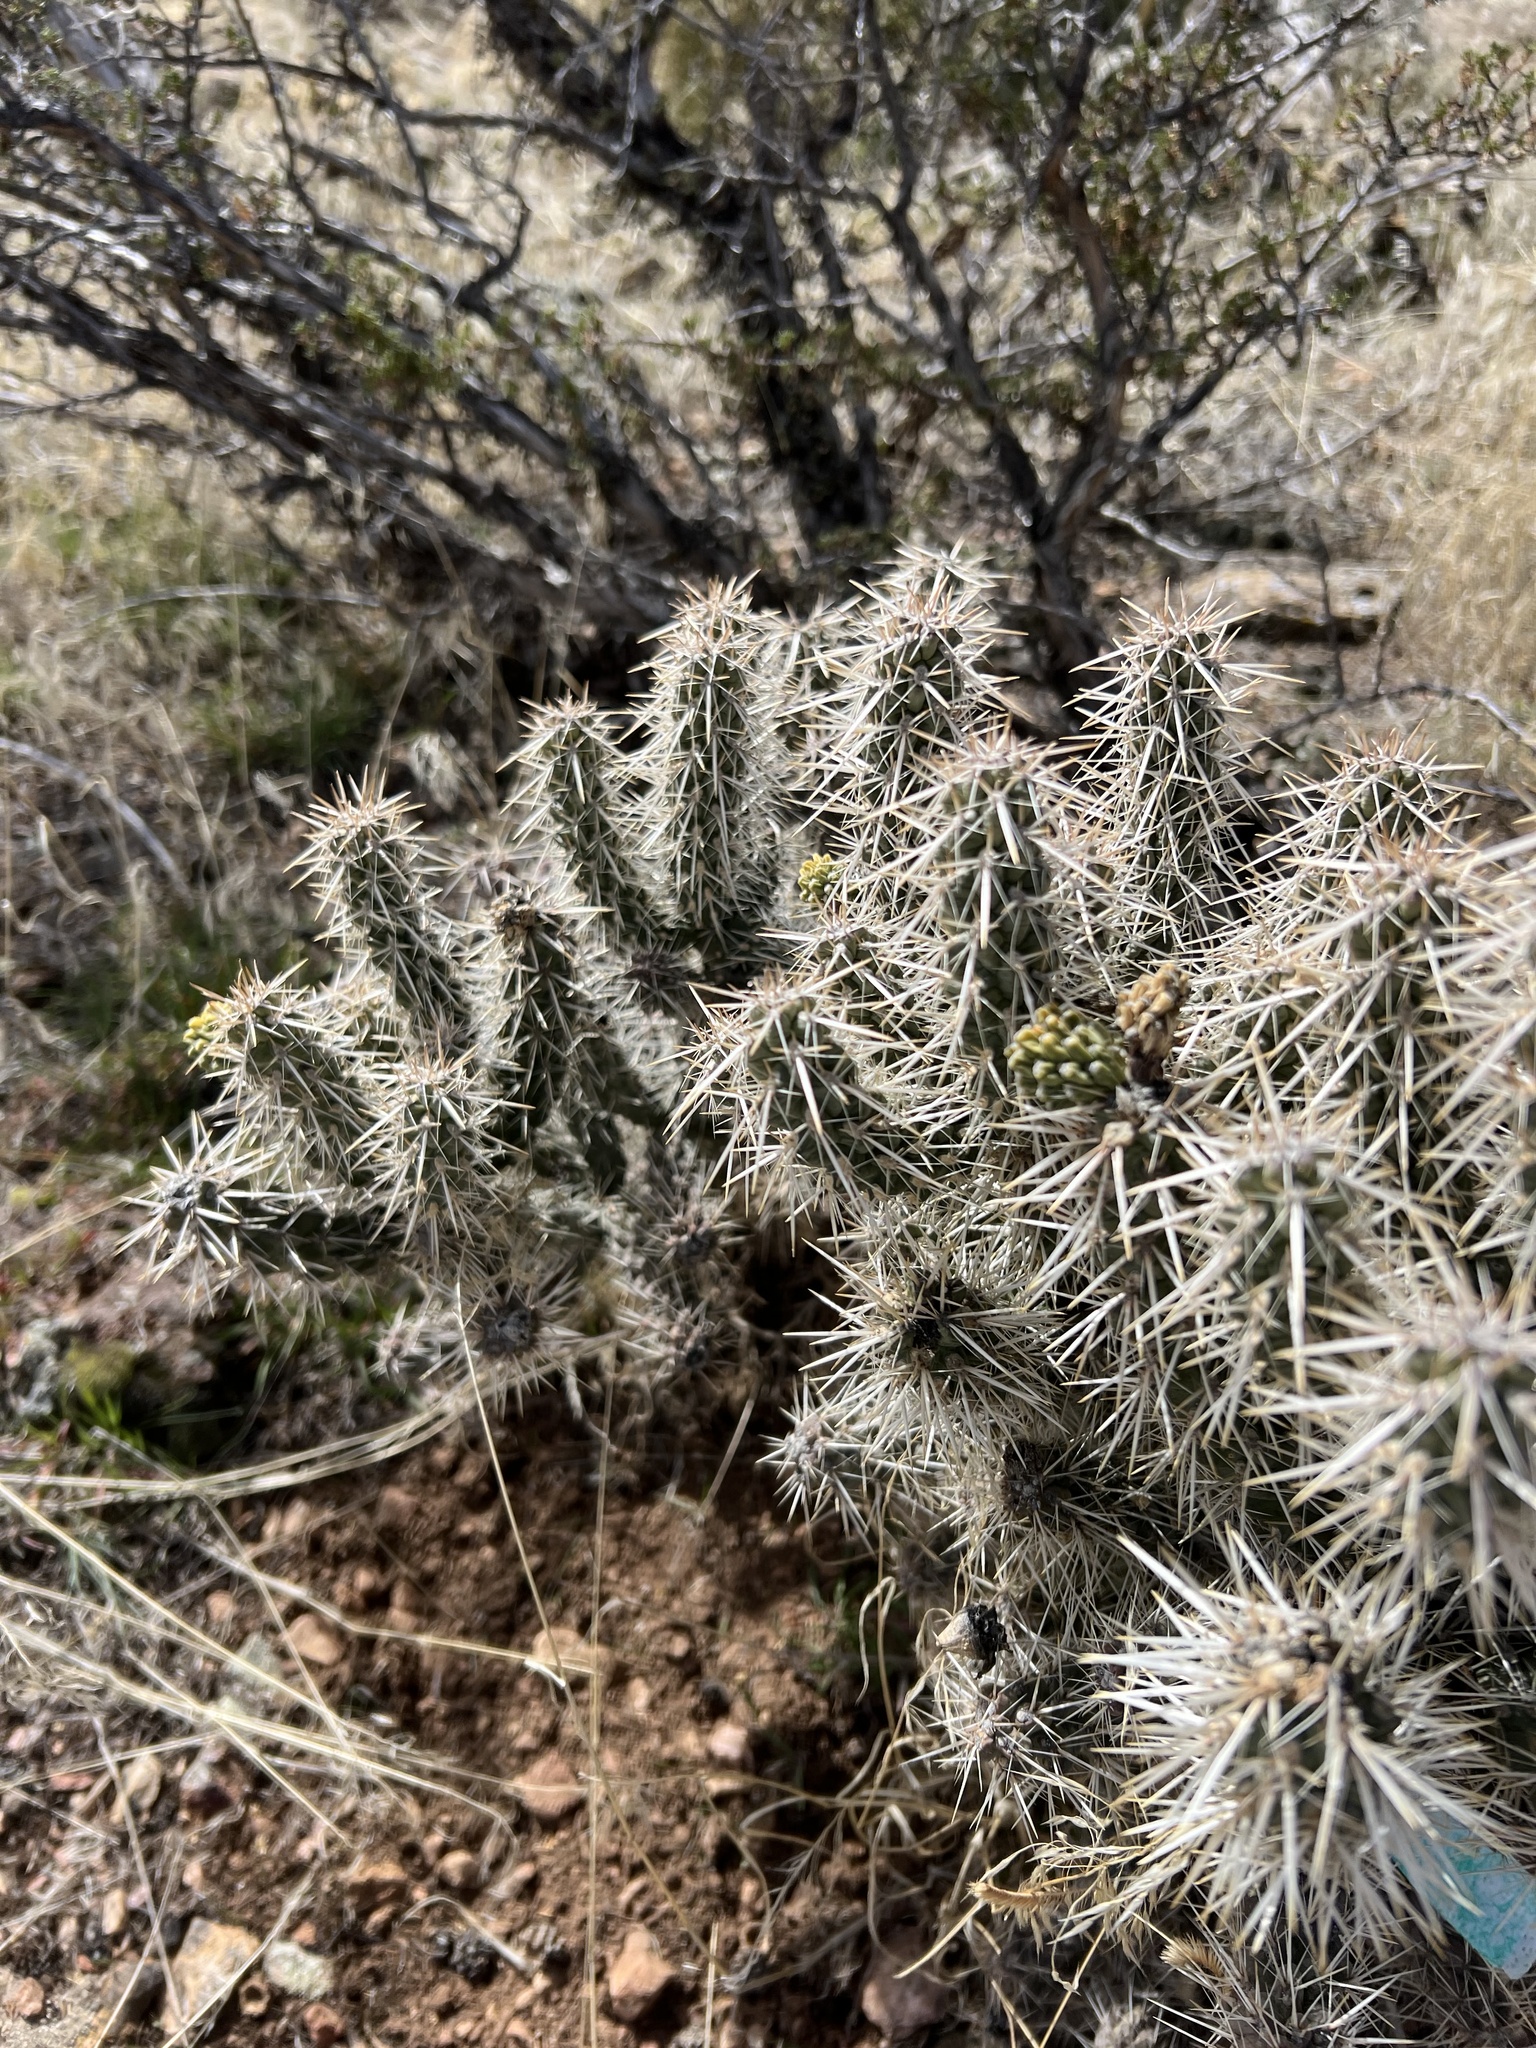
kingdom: Plantae
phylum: Tracheophyta
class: Magnoliopsida
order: Caryophyllales
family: Cactaceae
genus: Cylindropuntia
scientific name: Cylindropuntia whipplei
